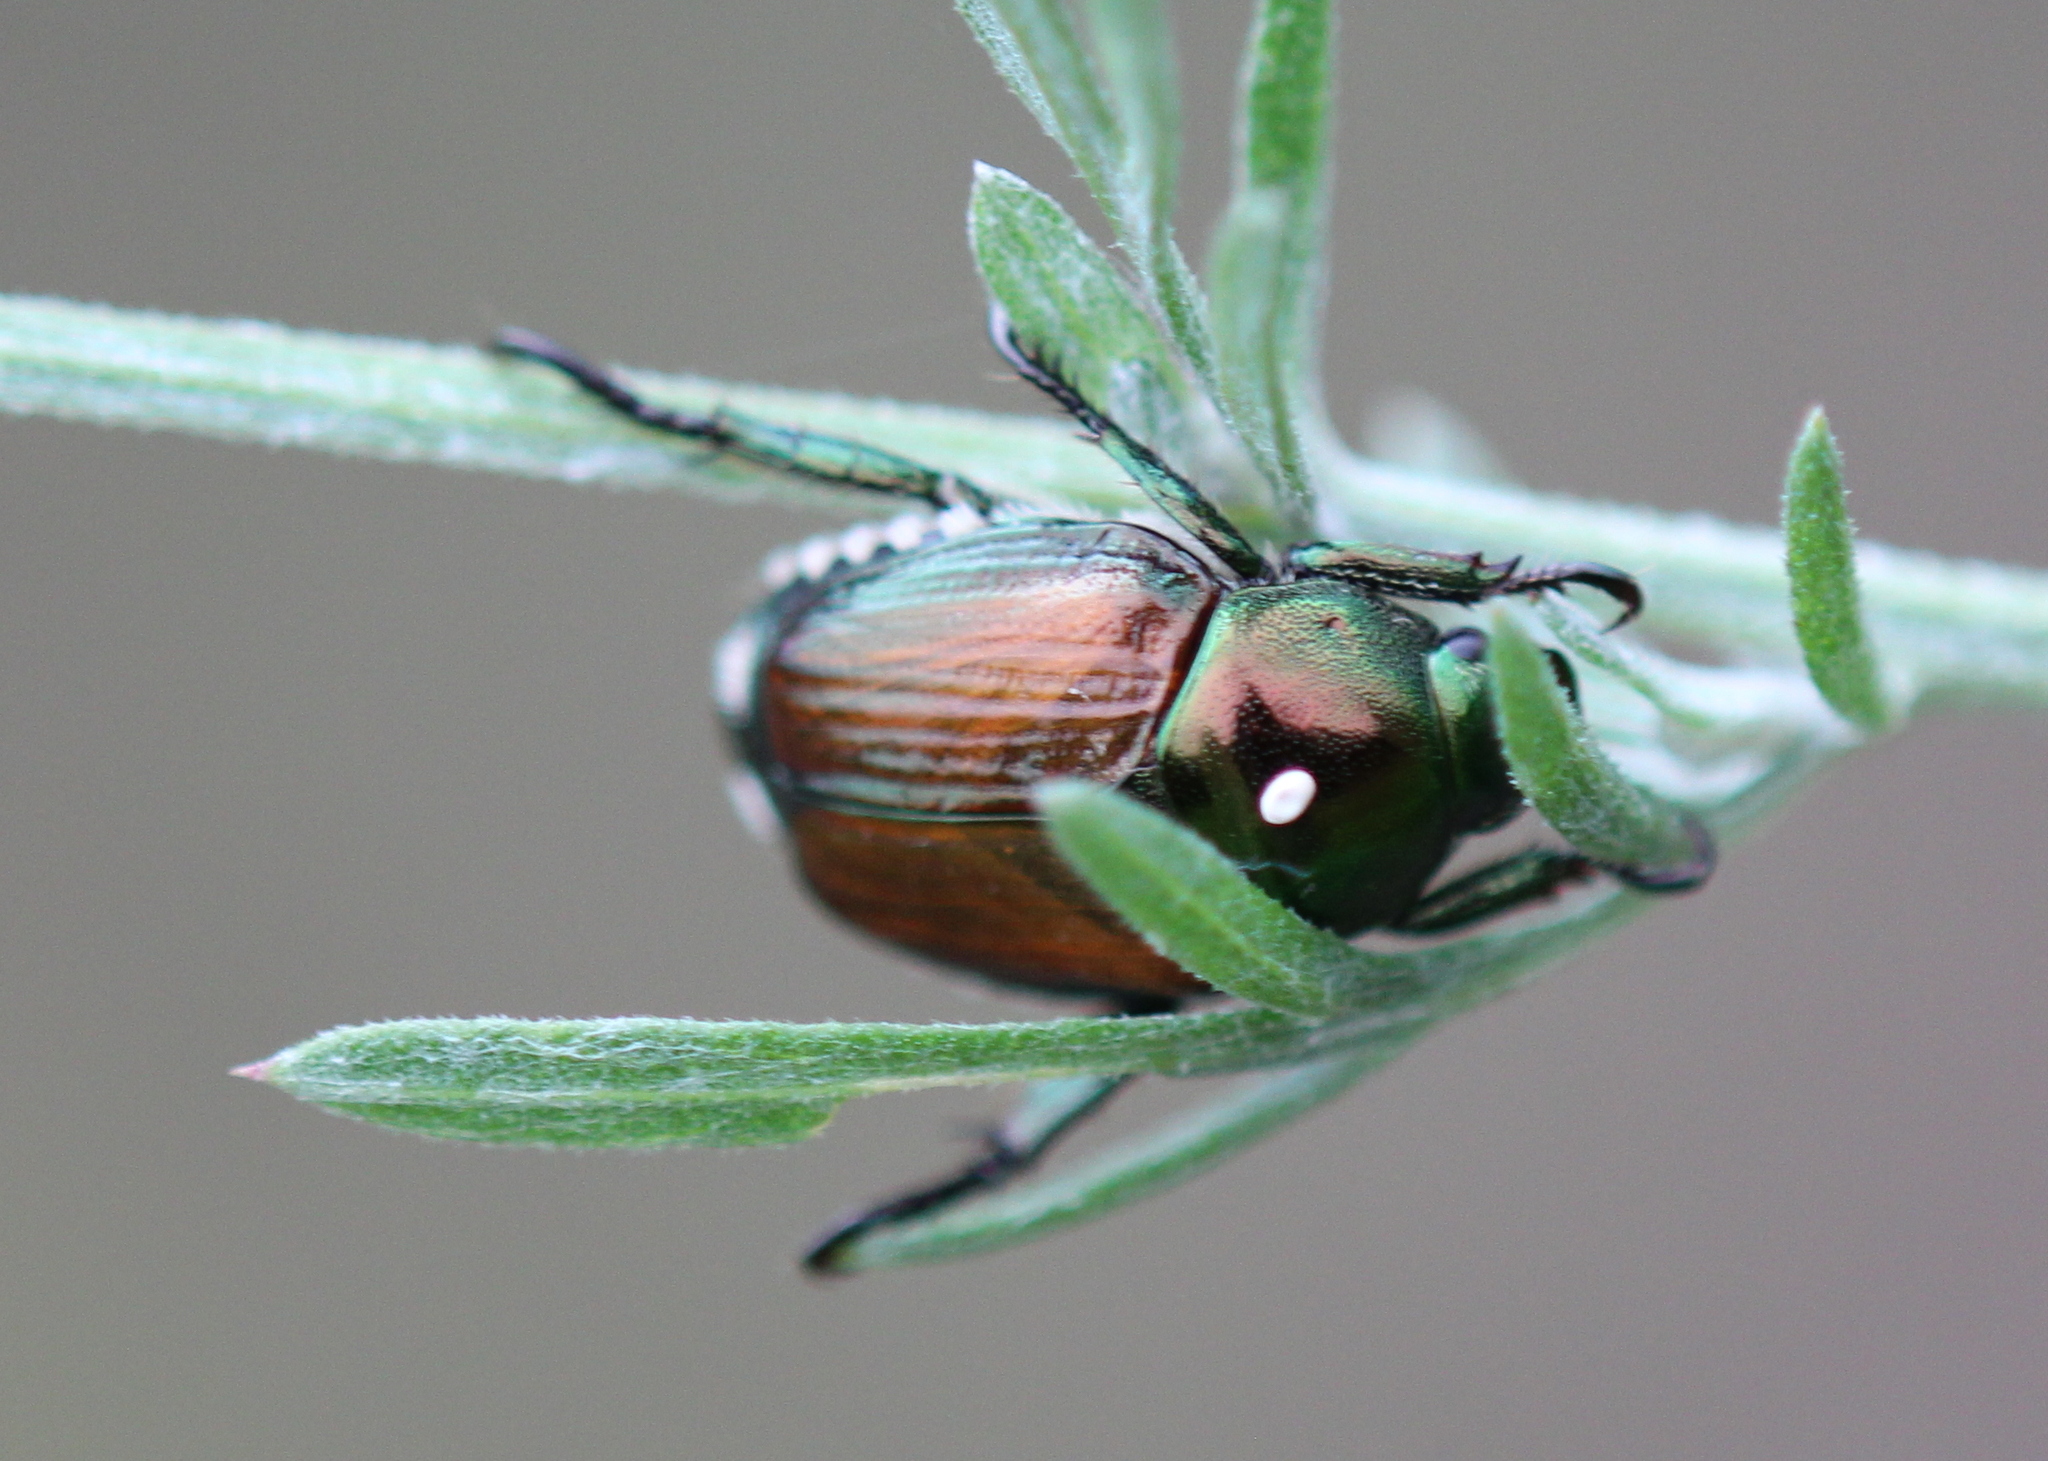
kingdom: Animalia
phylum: Arthropoda
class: Insecta
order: Coleoptera
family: Scarabaeidae
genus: Popillia
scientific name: Popillia japonica
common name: Japanese beetle
